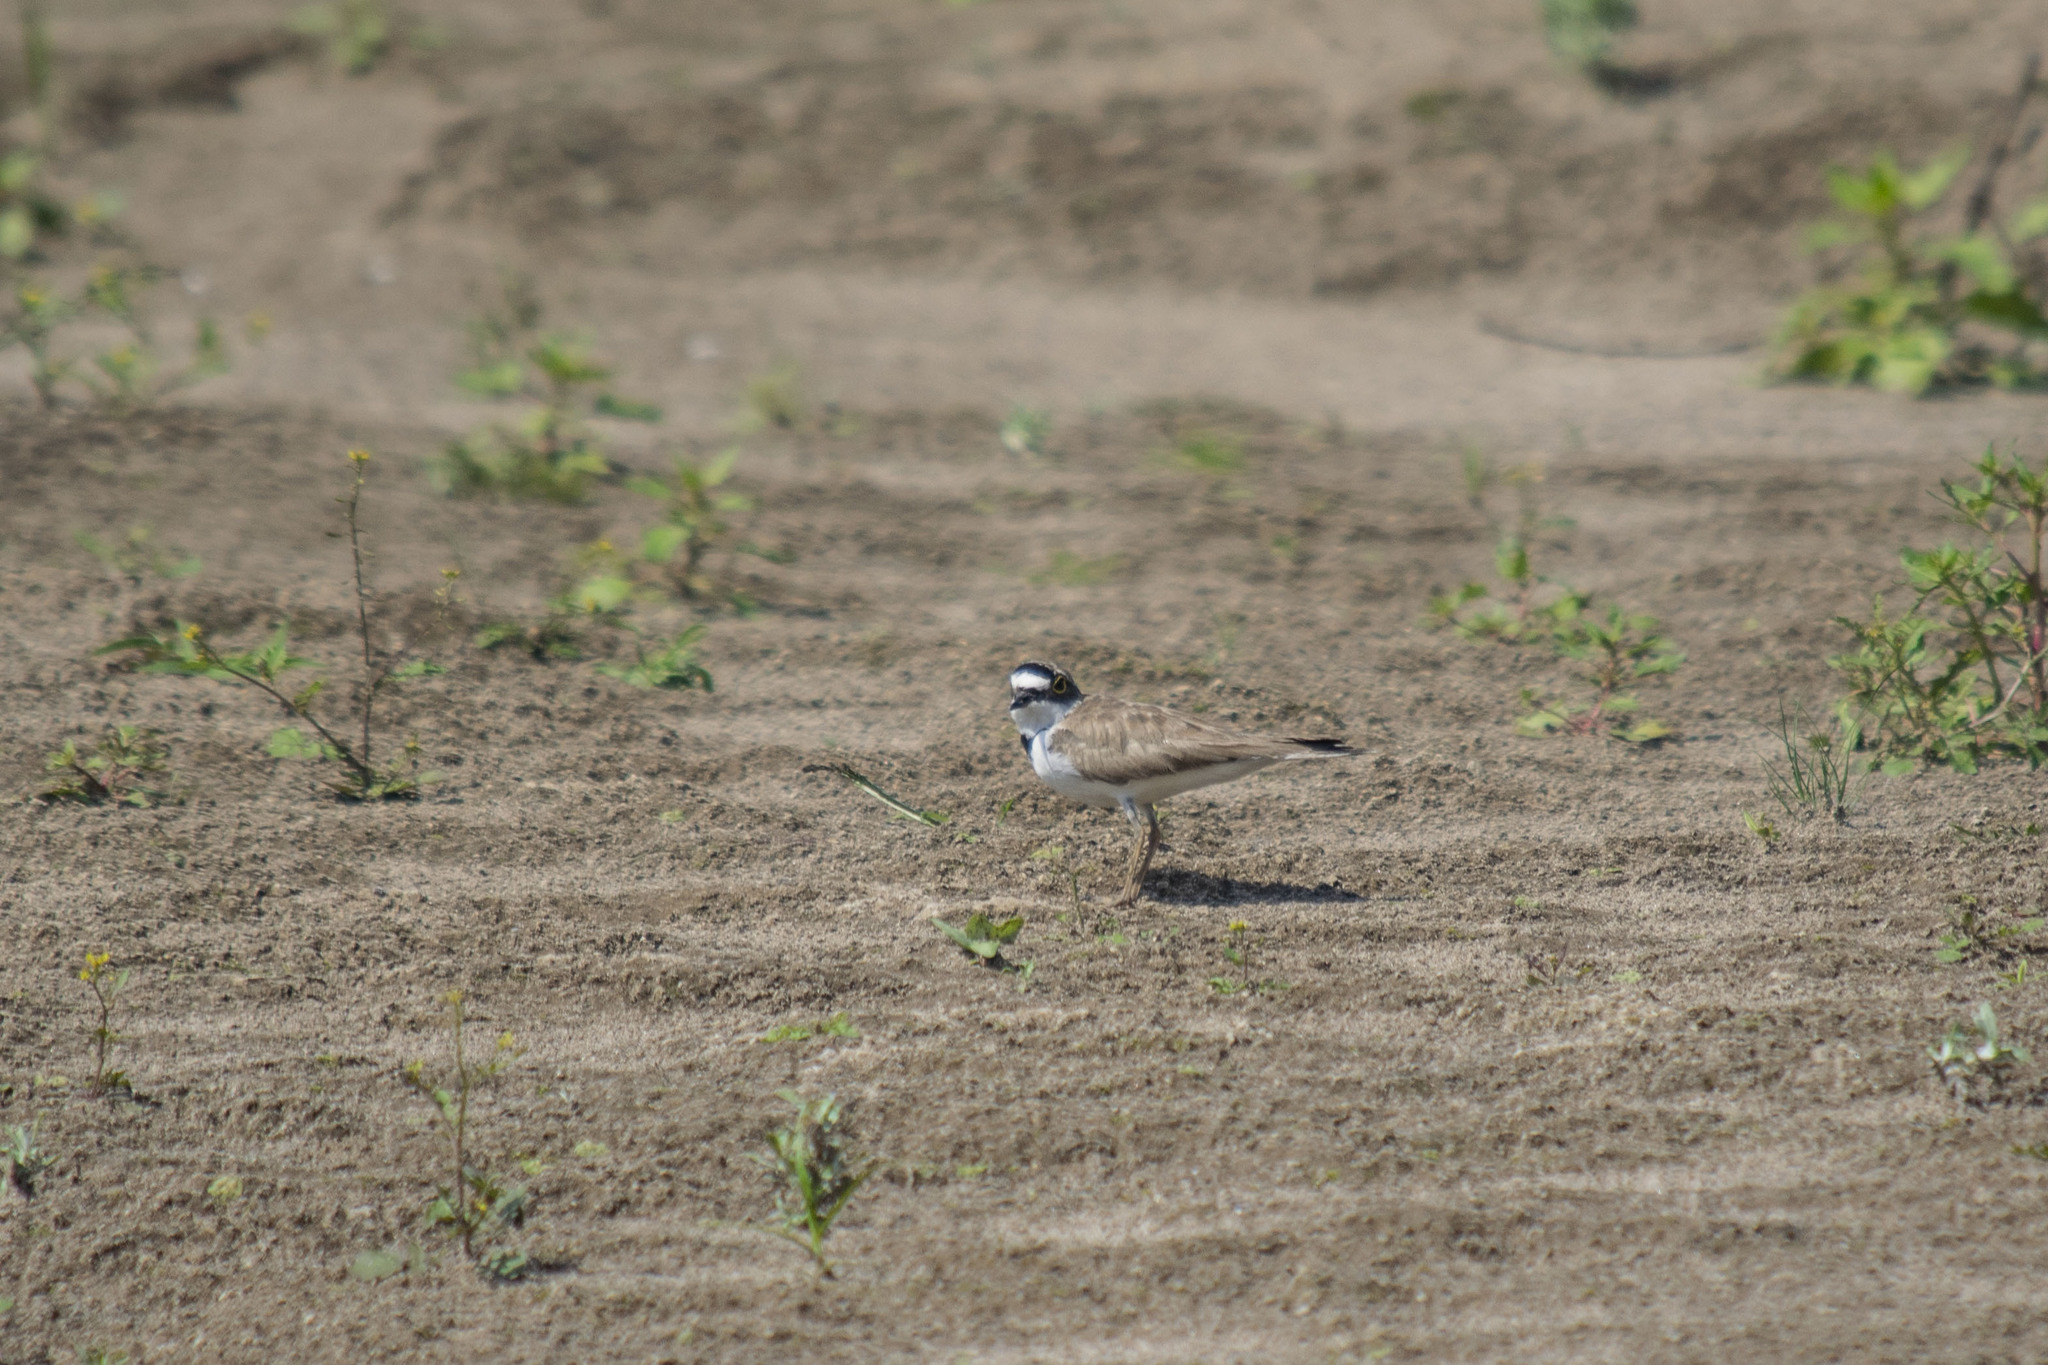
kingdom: Animalia
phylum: Chordata
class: Aves
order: Charadriiformes
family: Charadriidae
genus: Charadrius
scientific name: Charadrius dubius
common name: Little ringed plover
